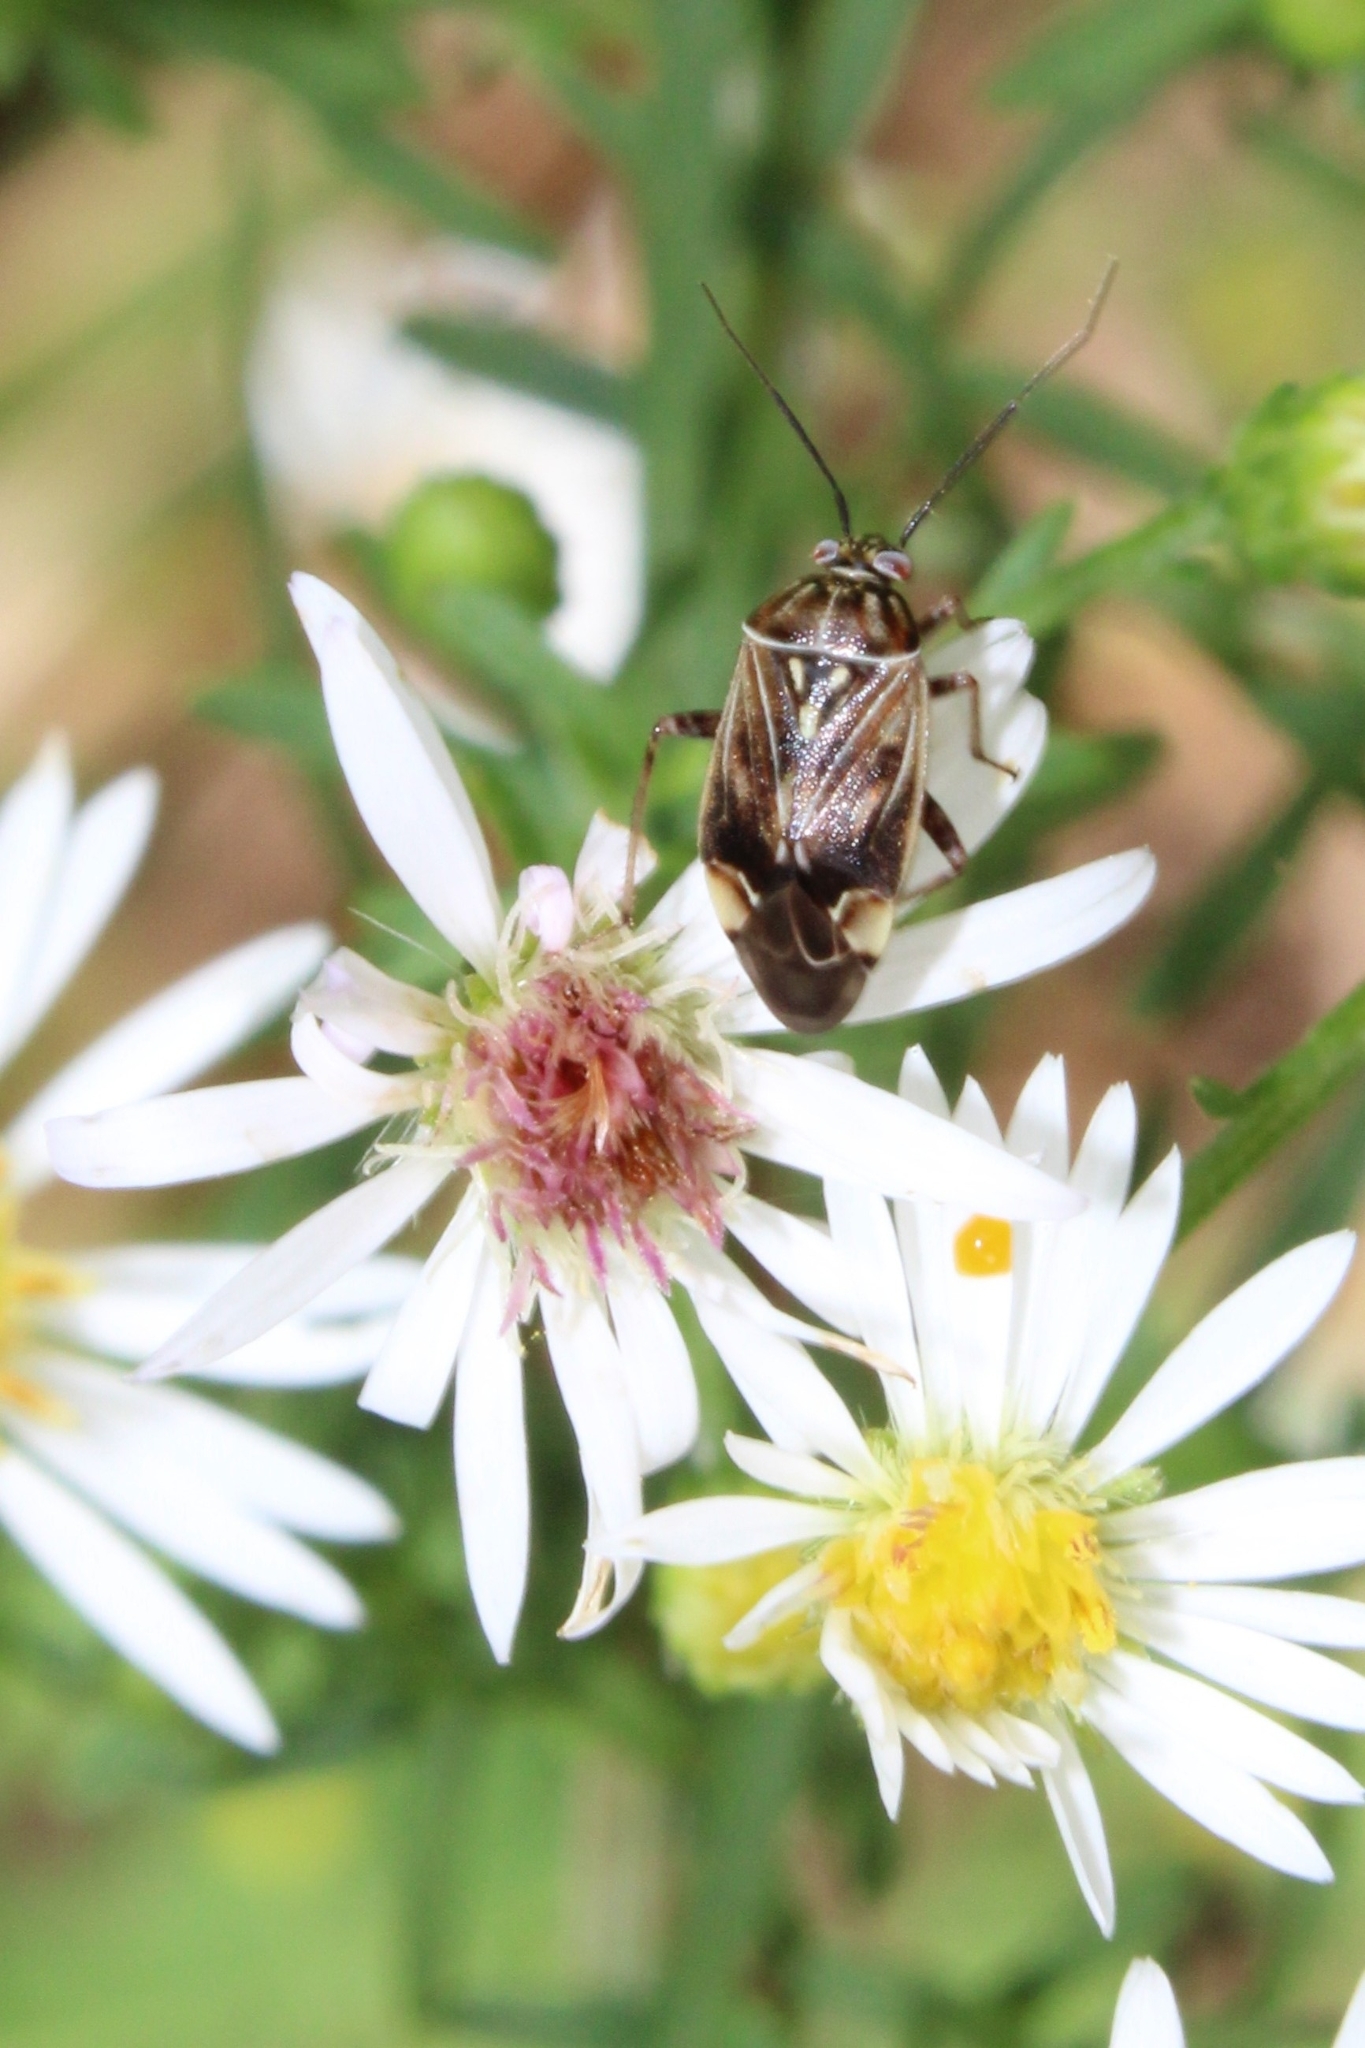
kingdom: Animalia
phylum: Arthropoda
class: Insecta
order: Hemiptera
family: Miridae
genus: Lygus
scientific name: Lygus lineolaris
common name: North american tarnished plant bug
